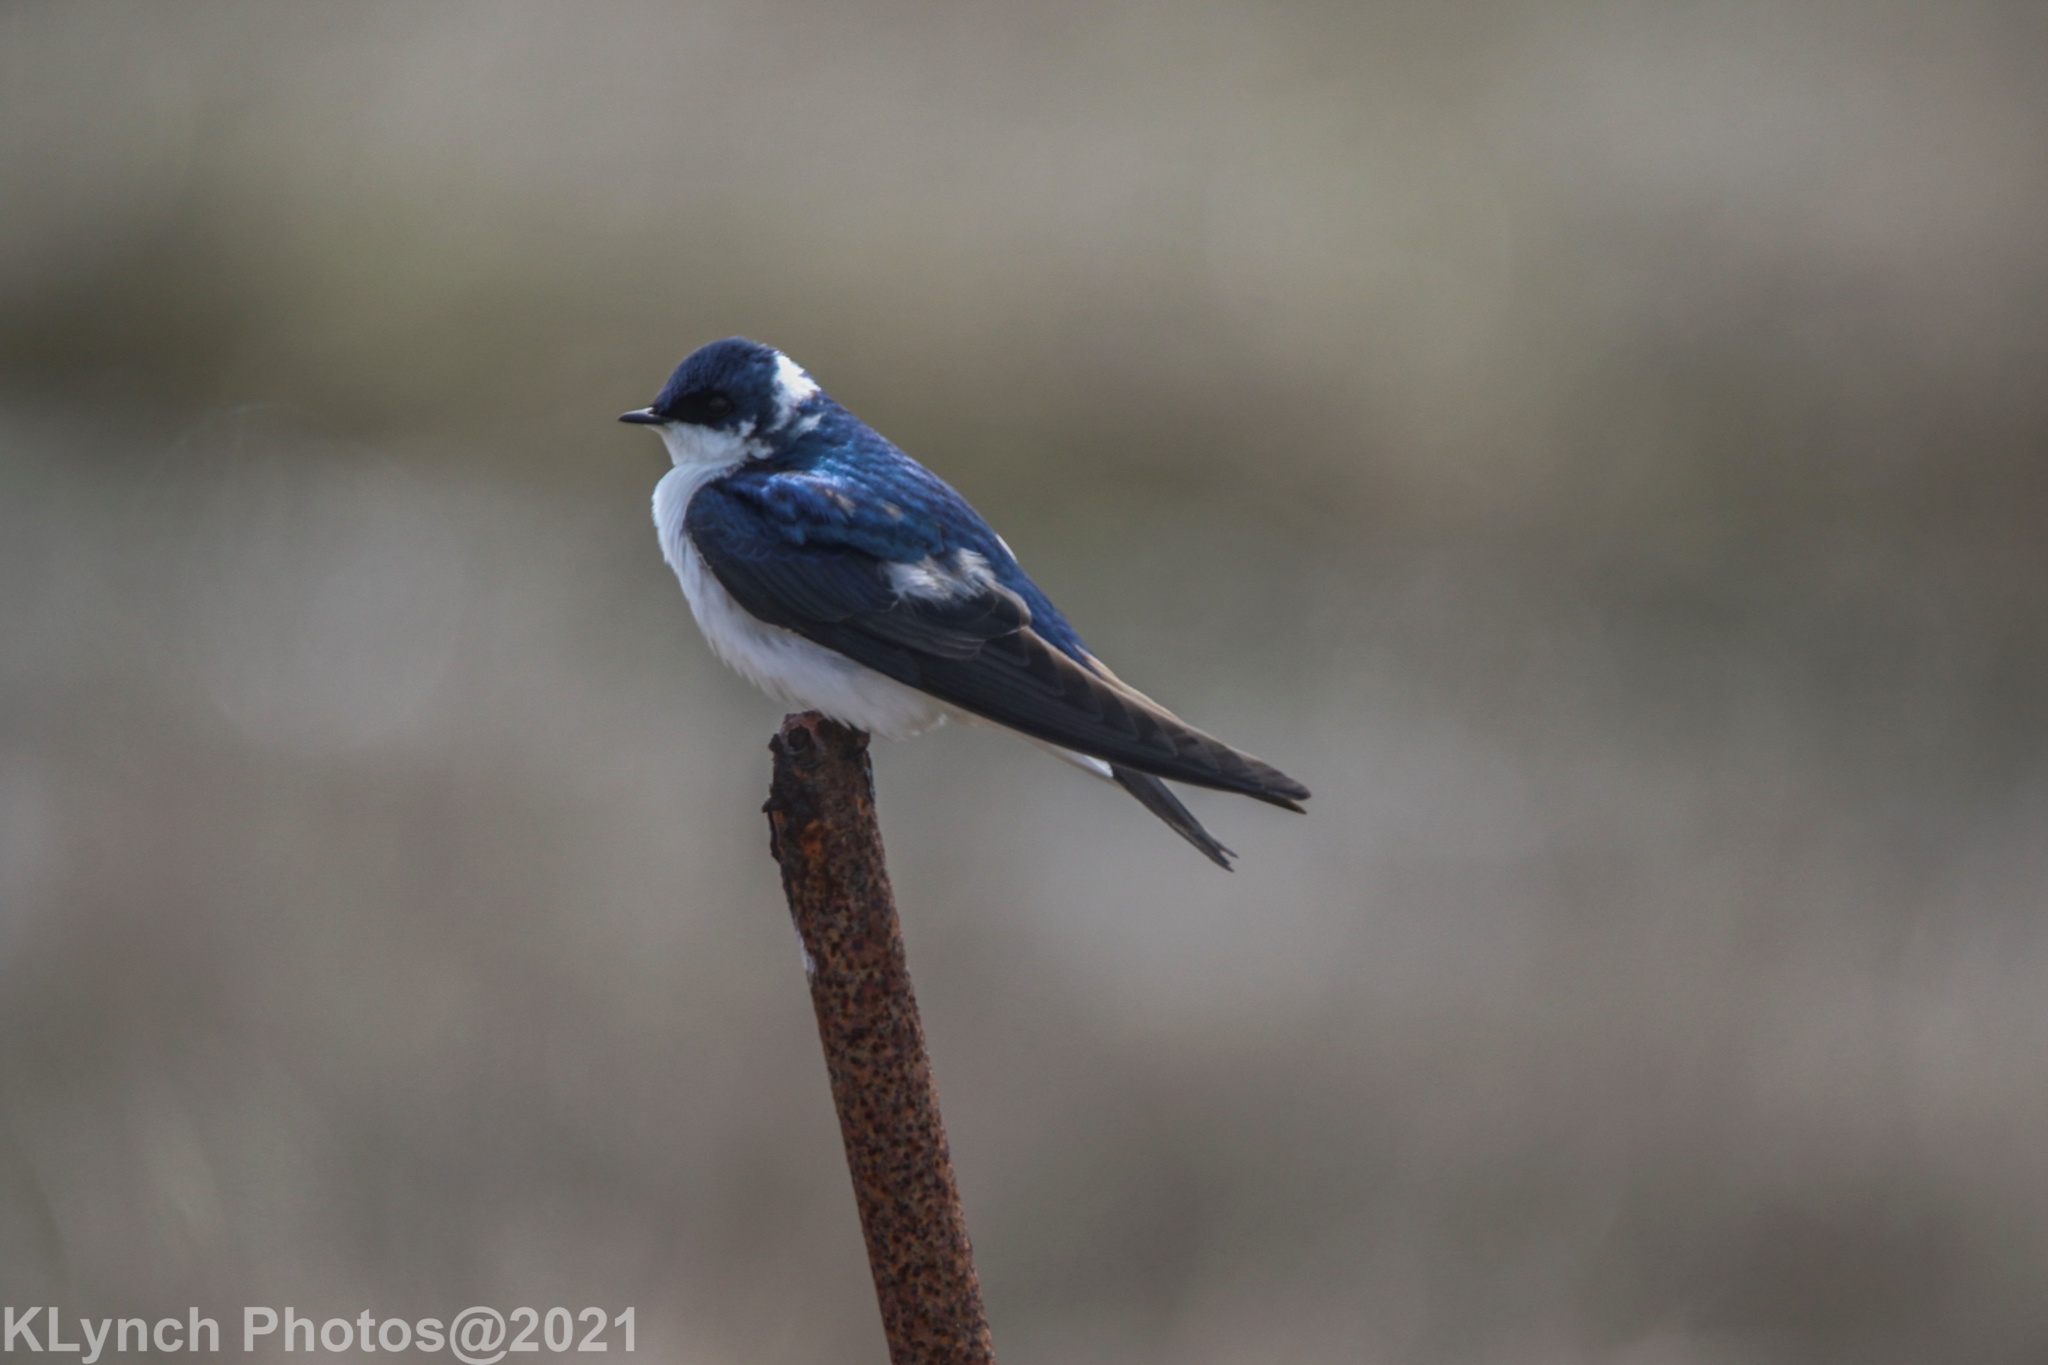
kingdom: Animalia
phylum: Chordata
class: Aves
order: Passeriformes
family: Hirundinidae
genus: Tachycineta
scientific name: Tachycineta bicolor
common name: Tree swallow
